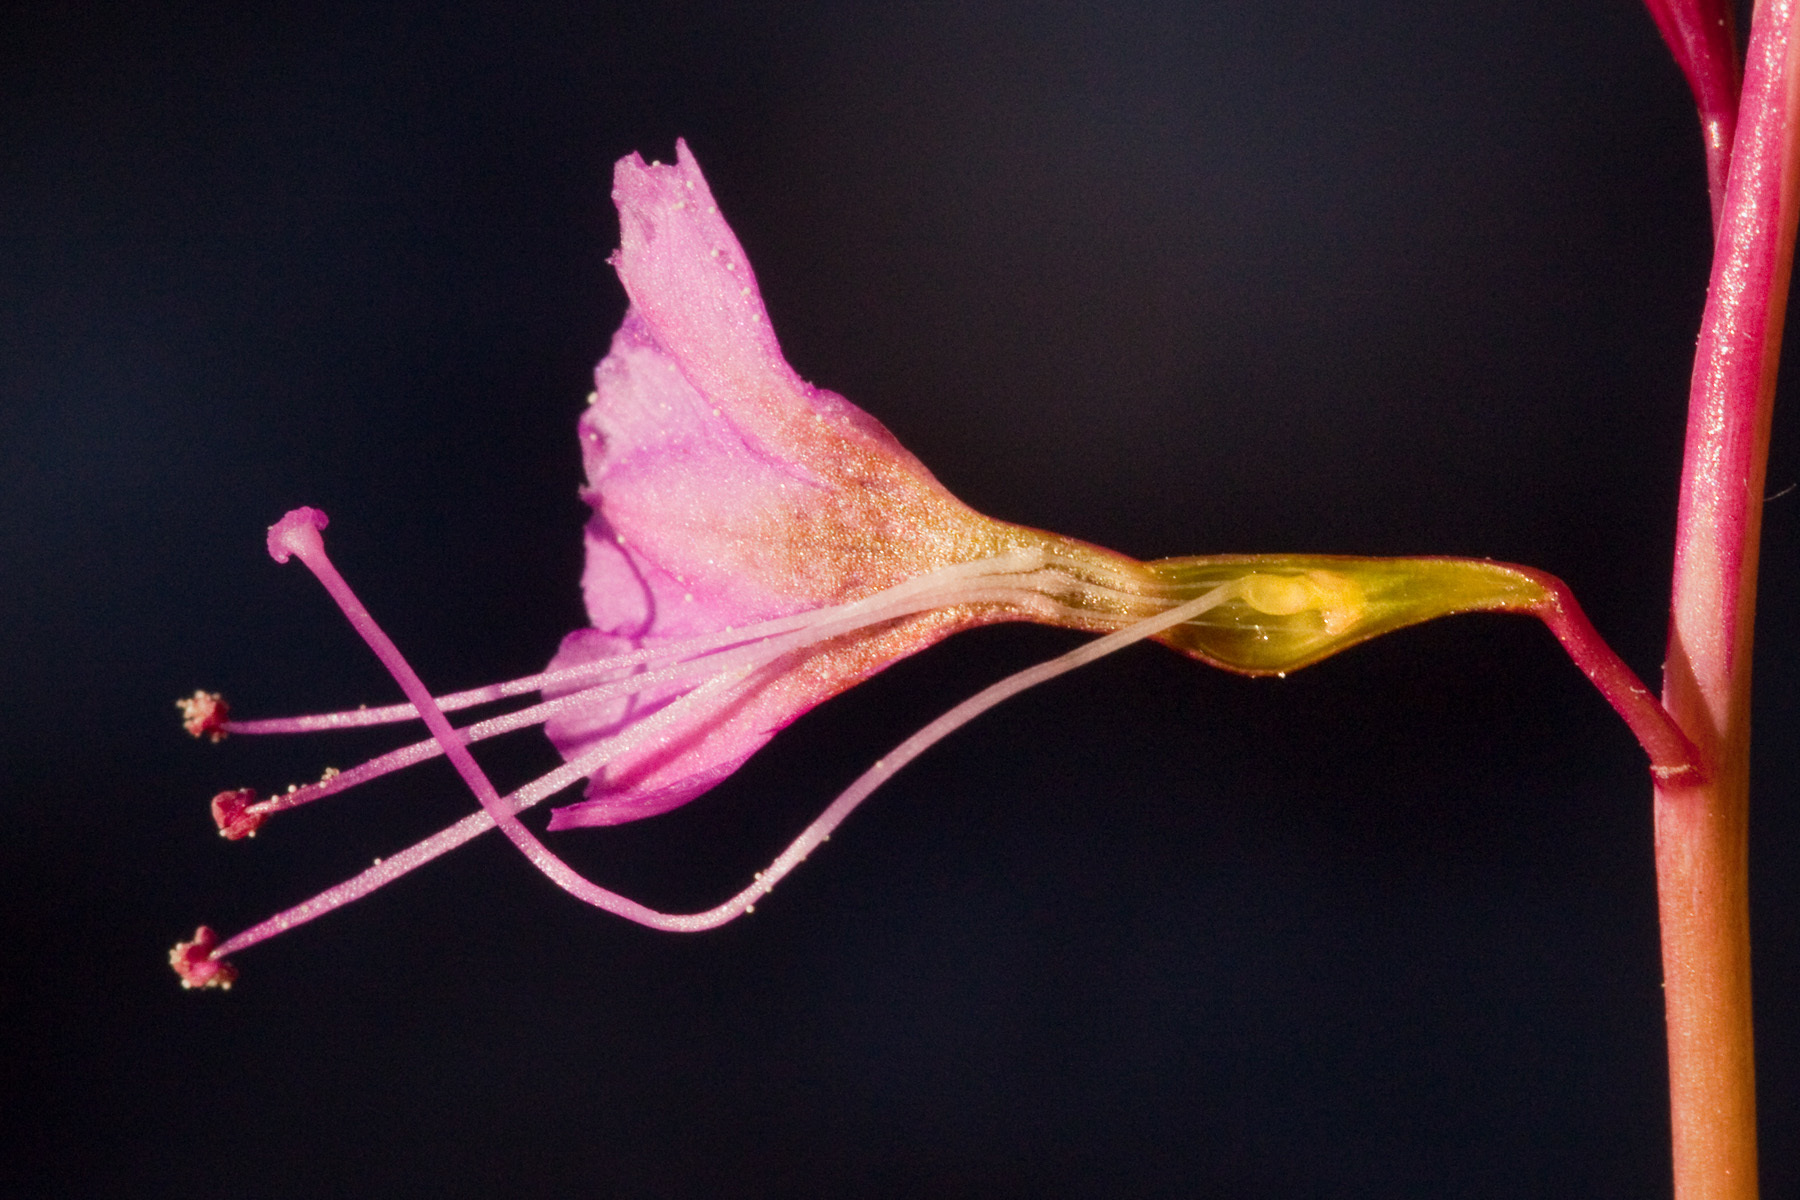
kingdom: Plantae
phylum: Tracheophyta
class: Magnoliopsida
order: Caryophyllales
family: Nyctaginaceae
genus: Cyphomeris
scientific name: Cyphomeris gypsophiloides
